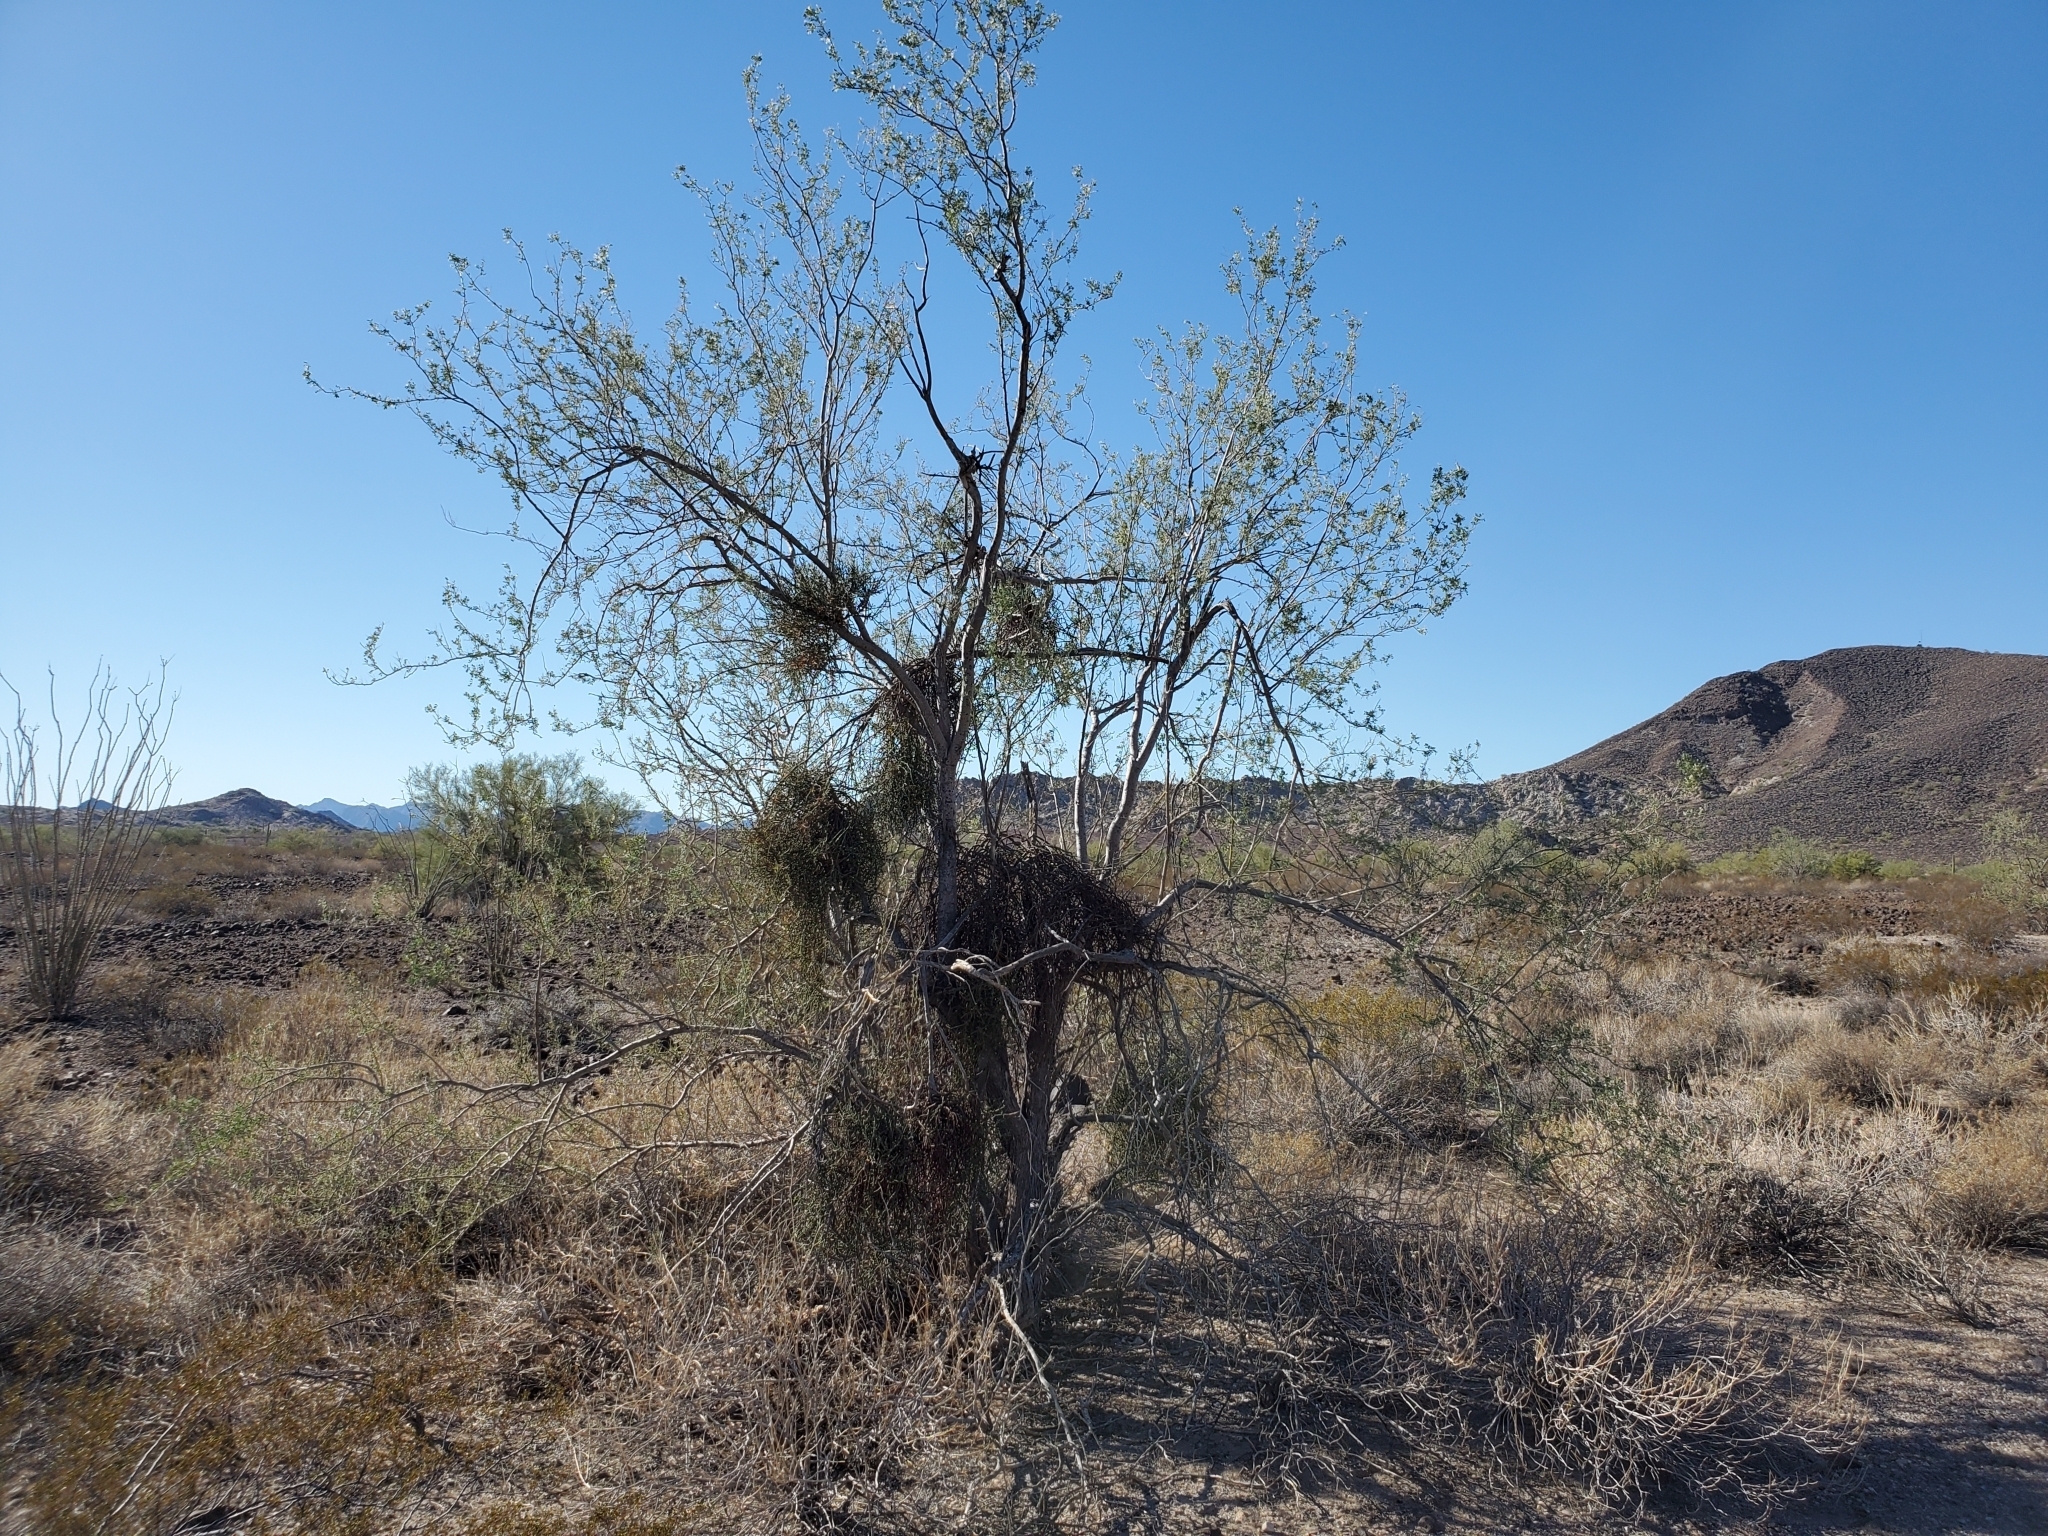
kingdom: Plantae
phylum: Tracheophyta
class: Magnoliopsida
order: Fabales
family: Fabaceae
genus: Olneya
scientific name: Olneya tesota
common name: Desert ironwood
